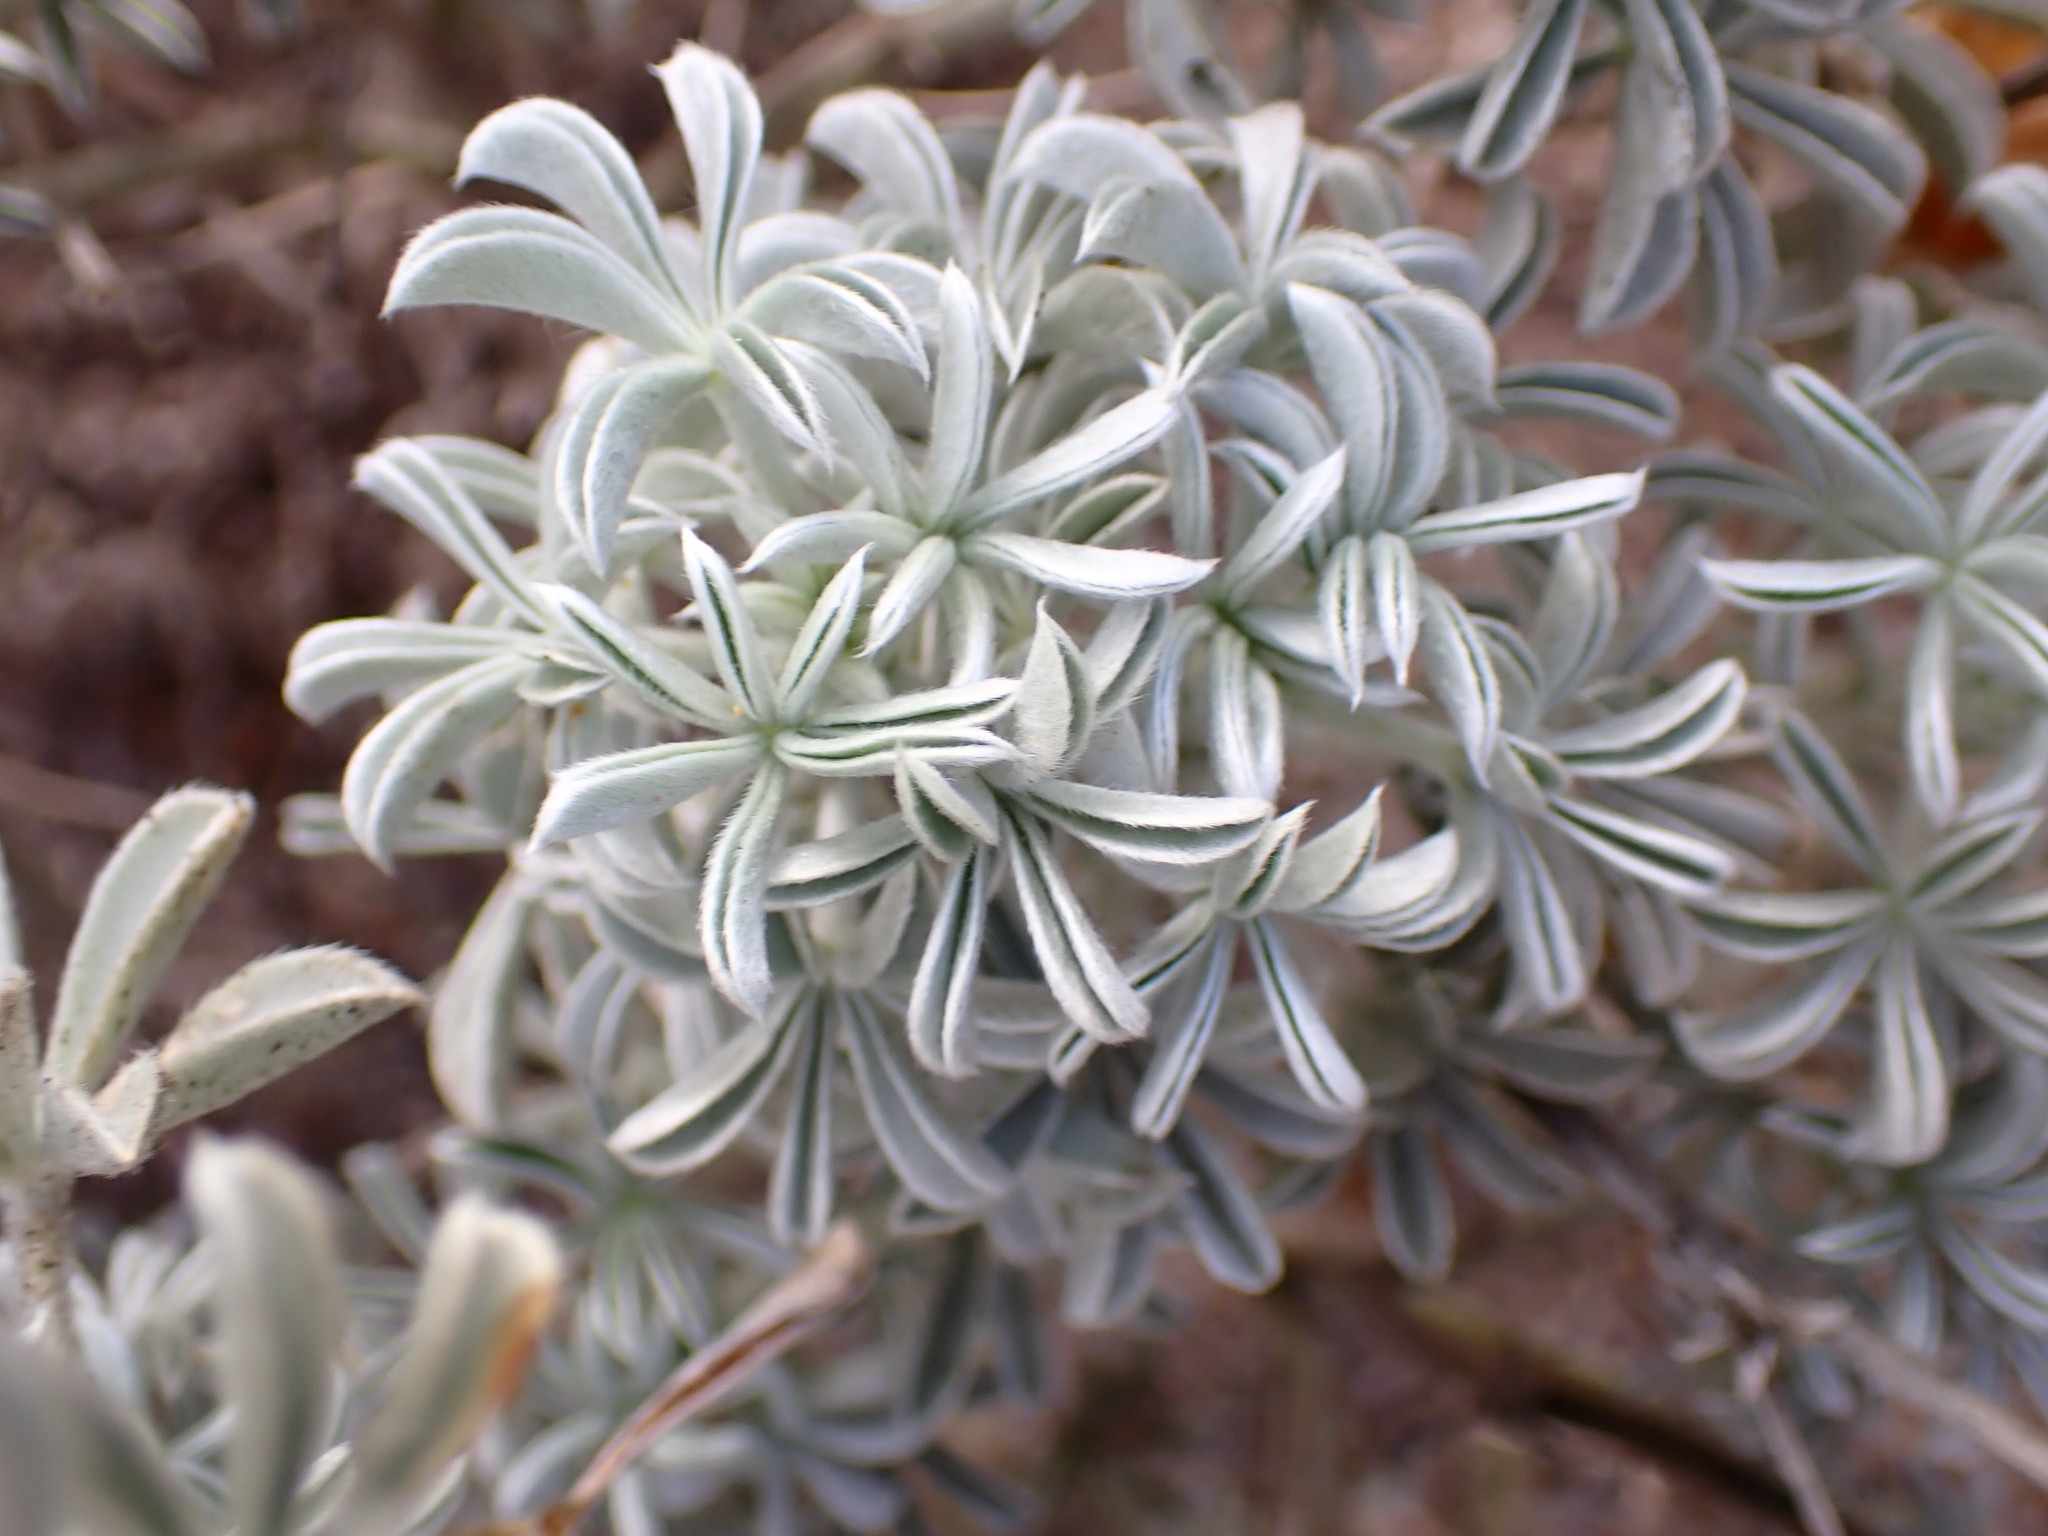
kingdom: Plantae
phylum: Tracheophyta
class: Magnoliopsida
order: Fabales
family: Fabaceae
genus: Lupinus
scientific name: Lupinus albifrons
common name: Foothill lupine
